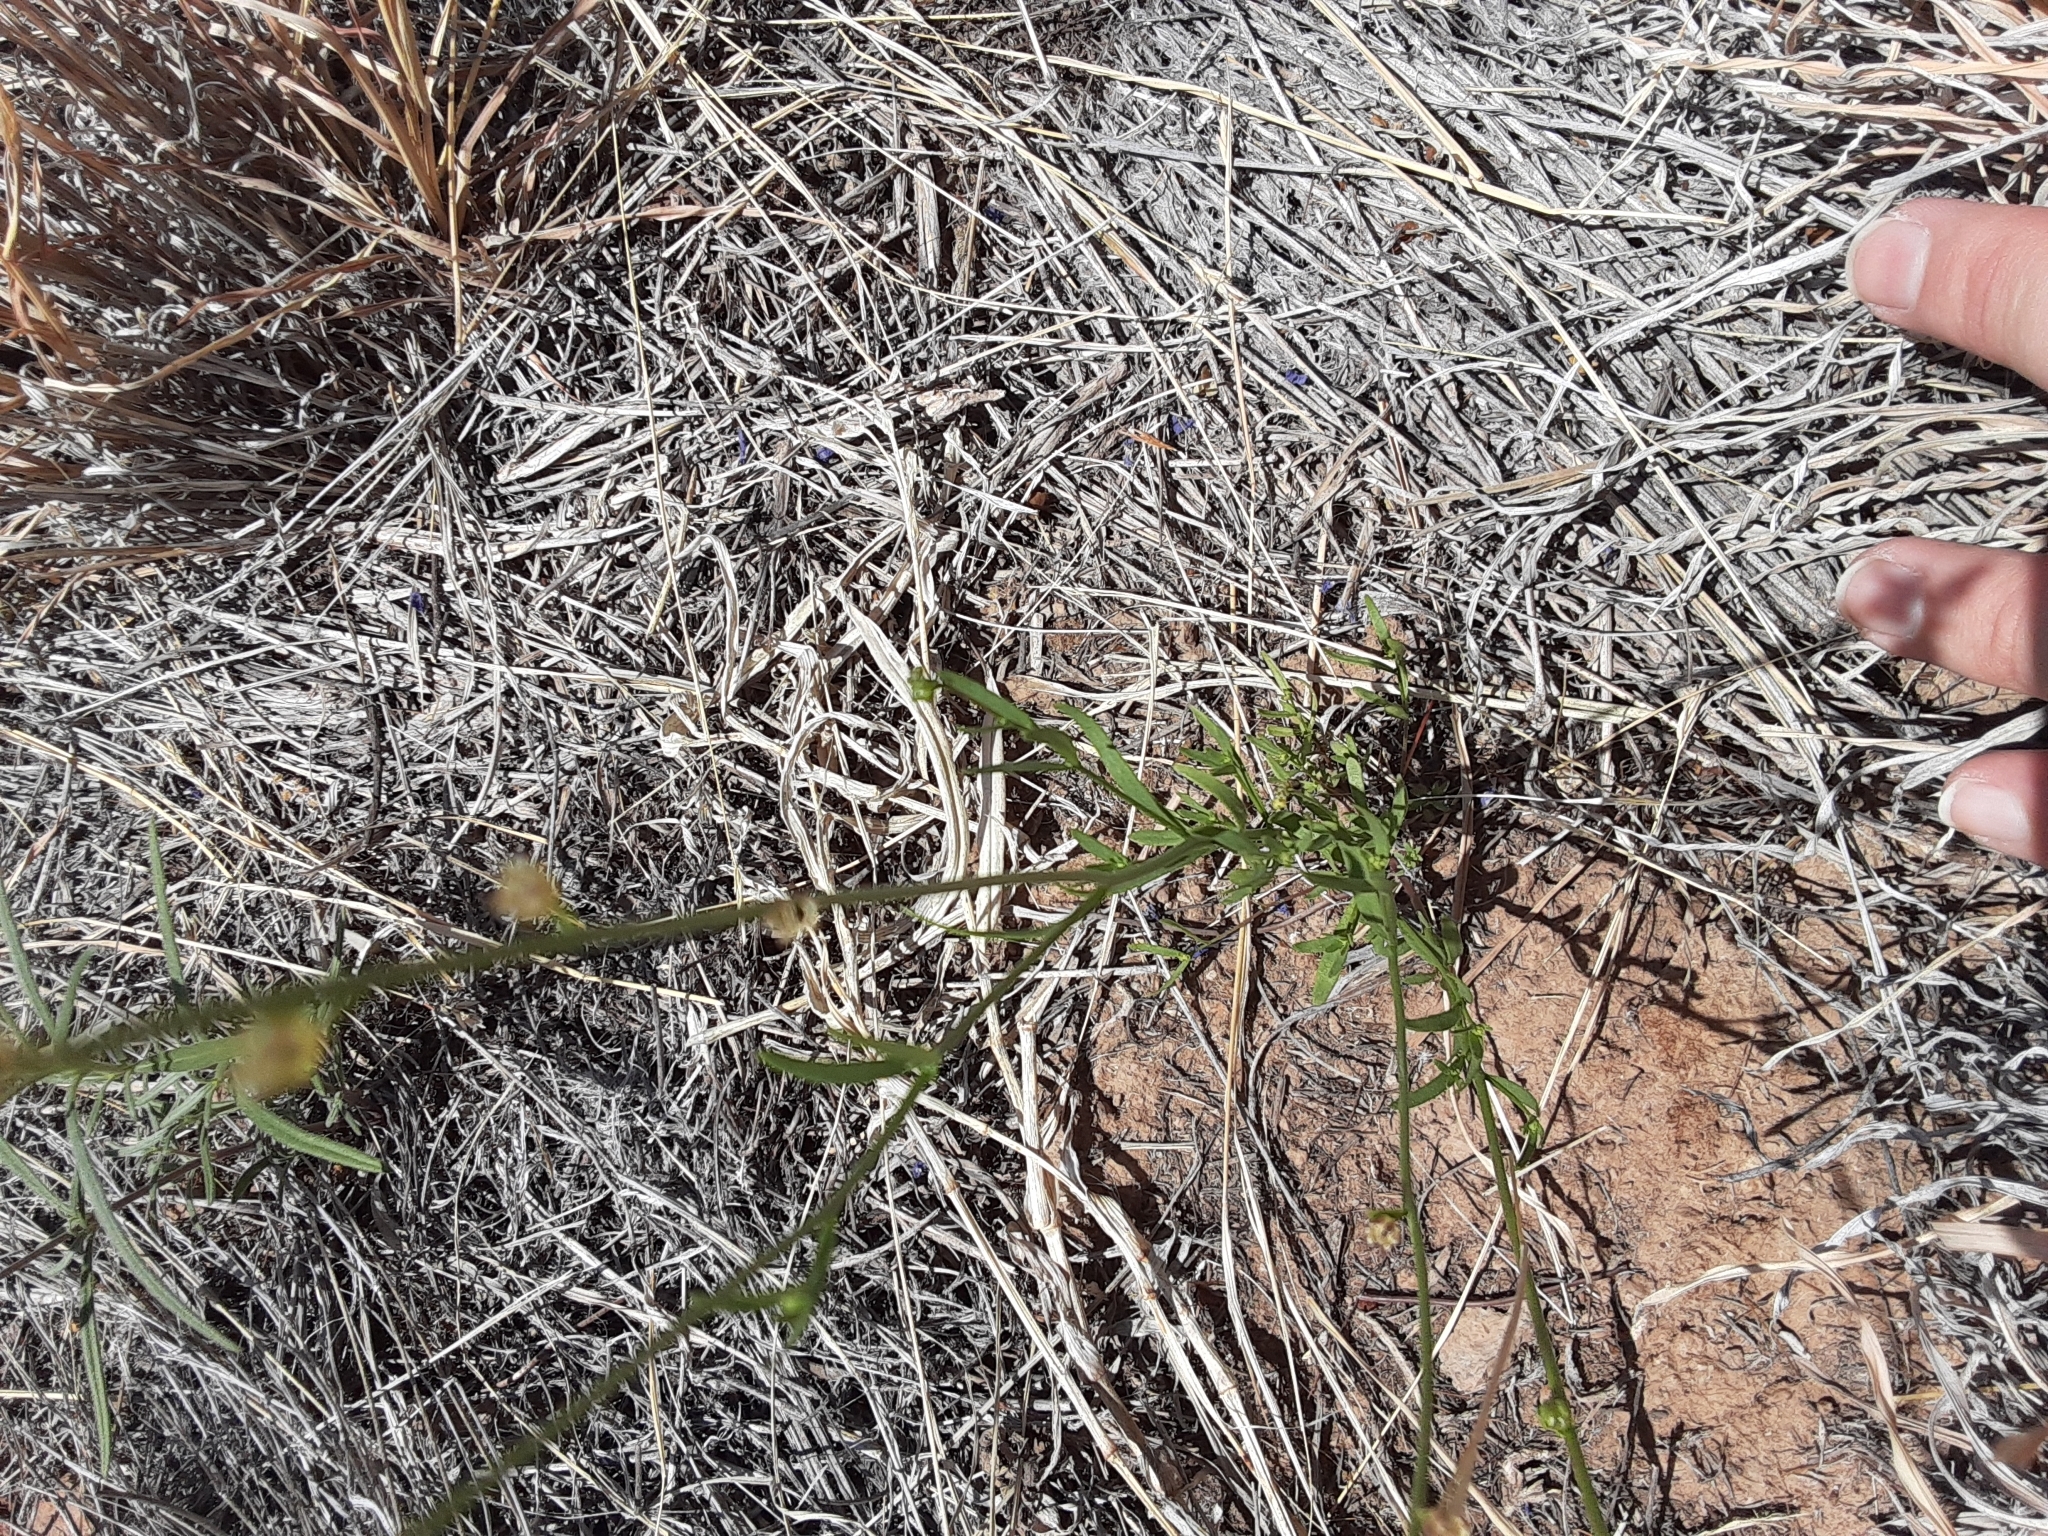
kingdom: Plantae
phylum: Tracheophyta
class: Magnoliopsida
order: Lamiales
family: Plantaginaceae
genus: Nuttallanthus
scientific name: Nuttallanthus texanus
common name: Texas toadflax
